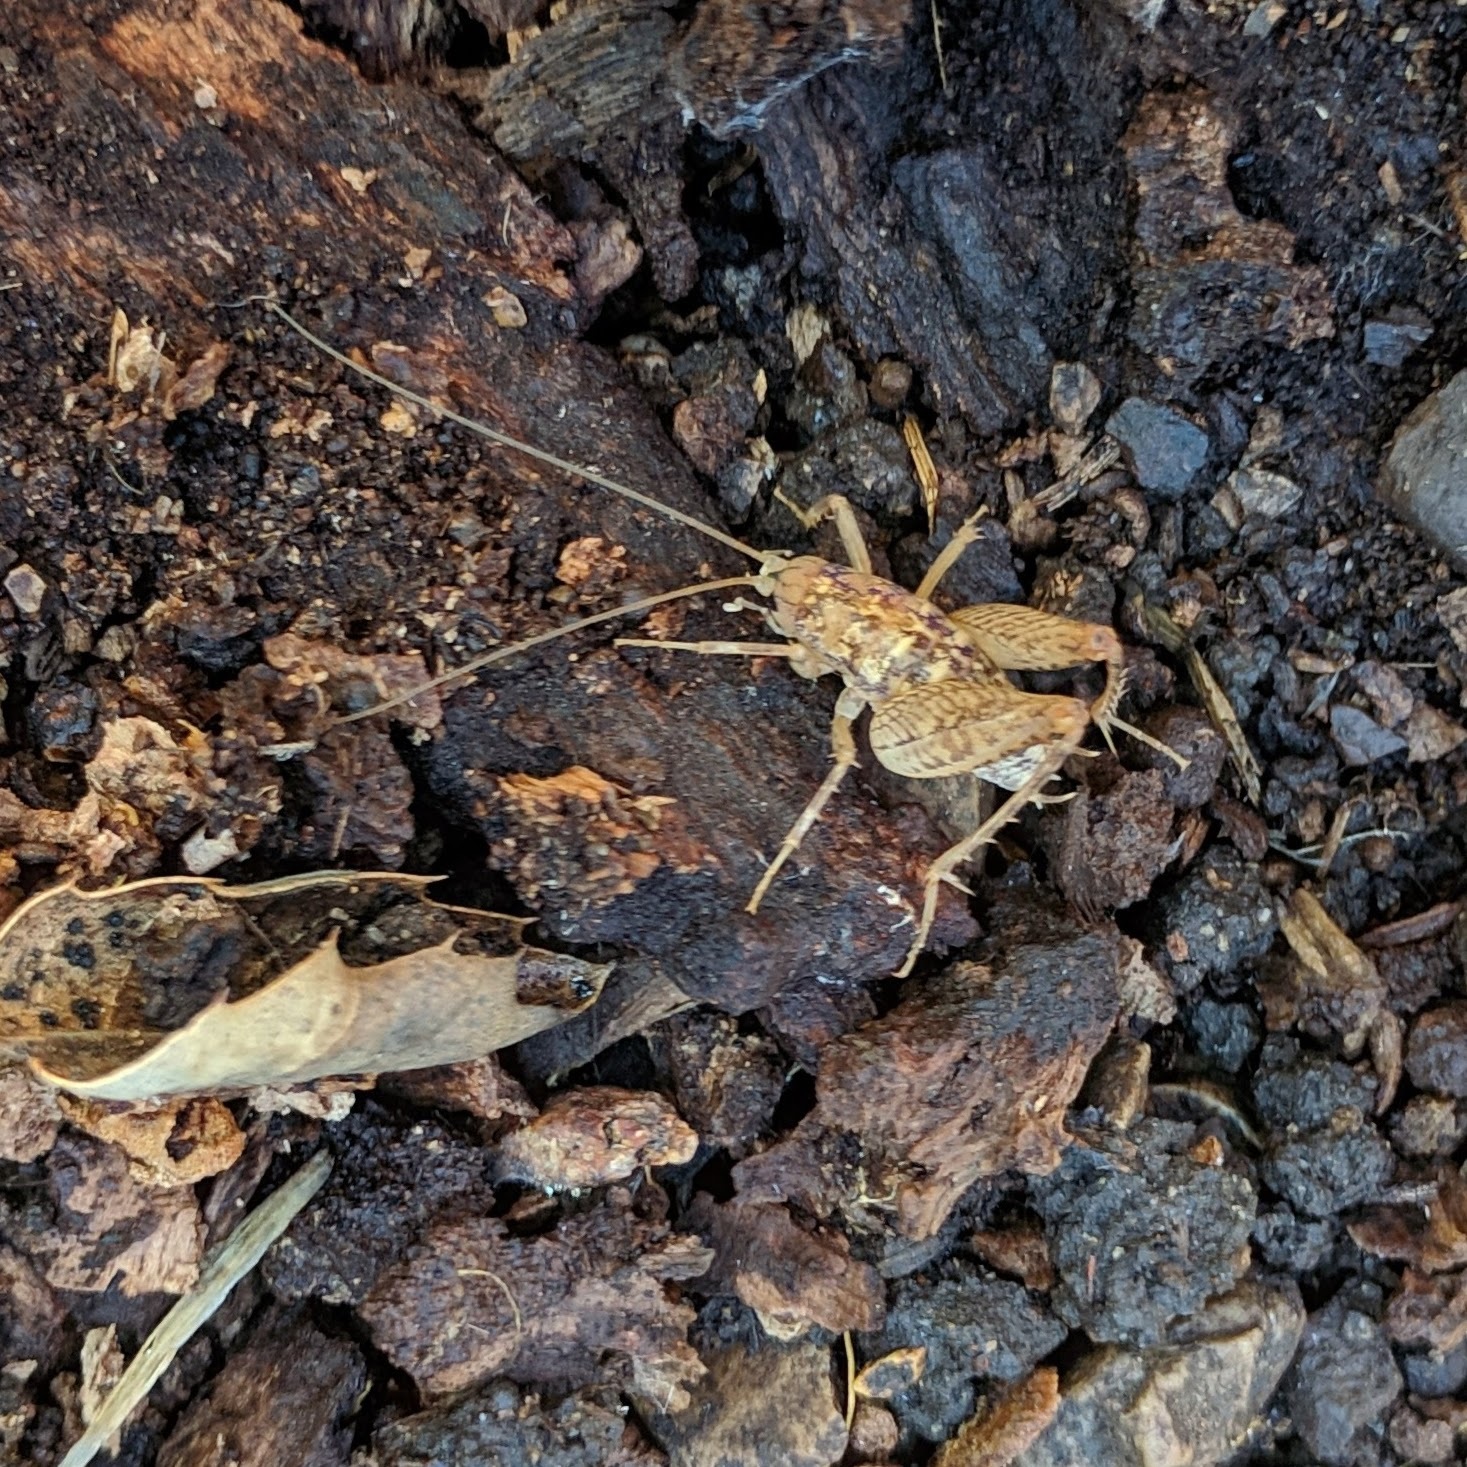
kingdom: Animalia
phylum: Arthropoda
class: Insecta
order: Orthoptera
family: Rhaphidophoridae
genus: Pristoceuthophilus
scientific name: Pristoceuthophilus
